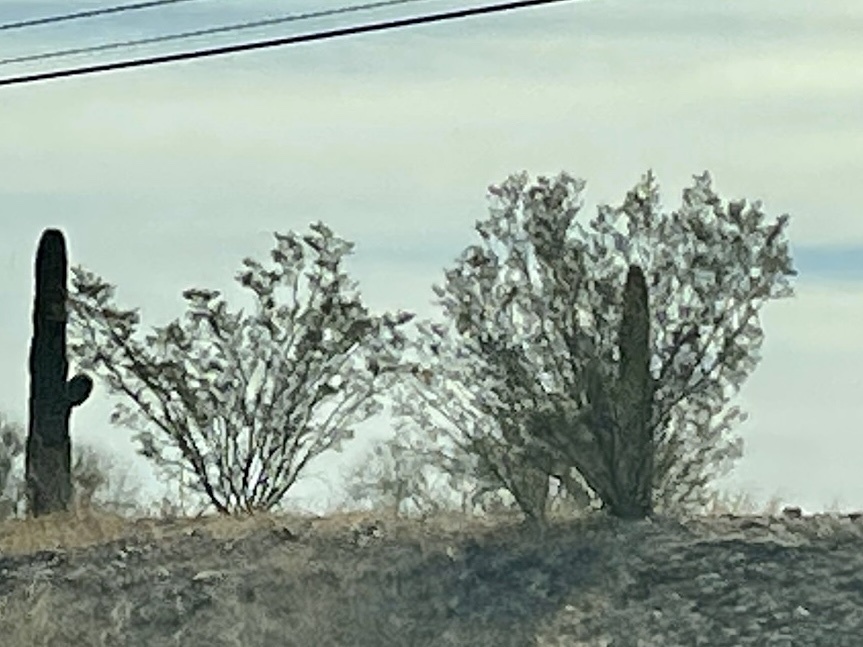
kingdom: Plantae
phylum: Tracheophyta
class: Magnoliopsida
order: Zygophyllales
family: Zygophyllaceae
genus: Larrea
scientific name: Larrea tridentata
